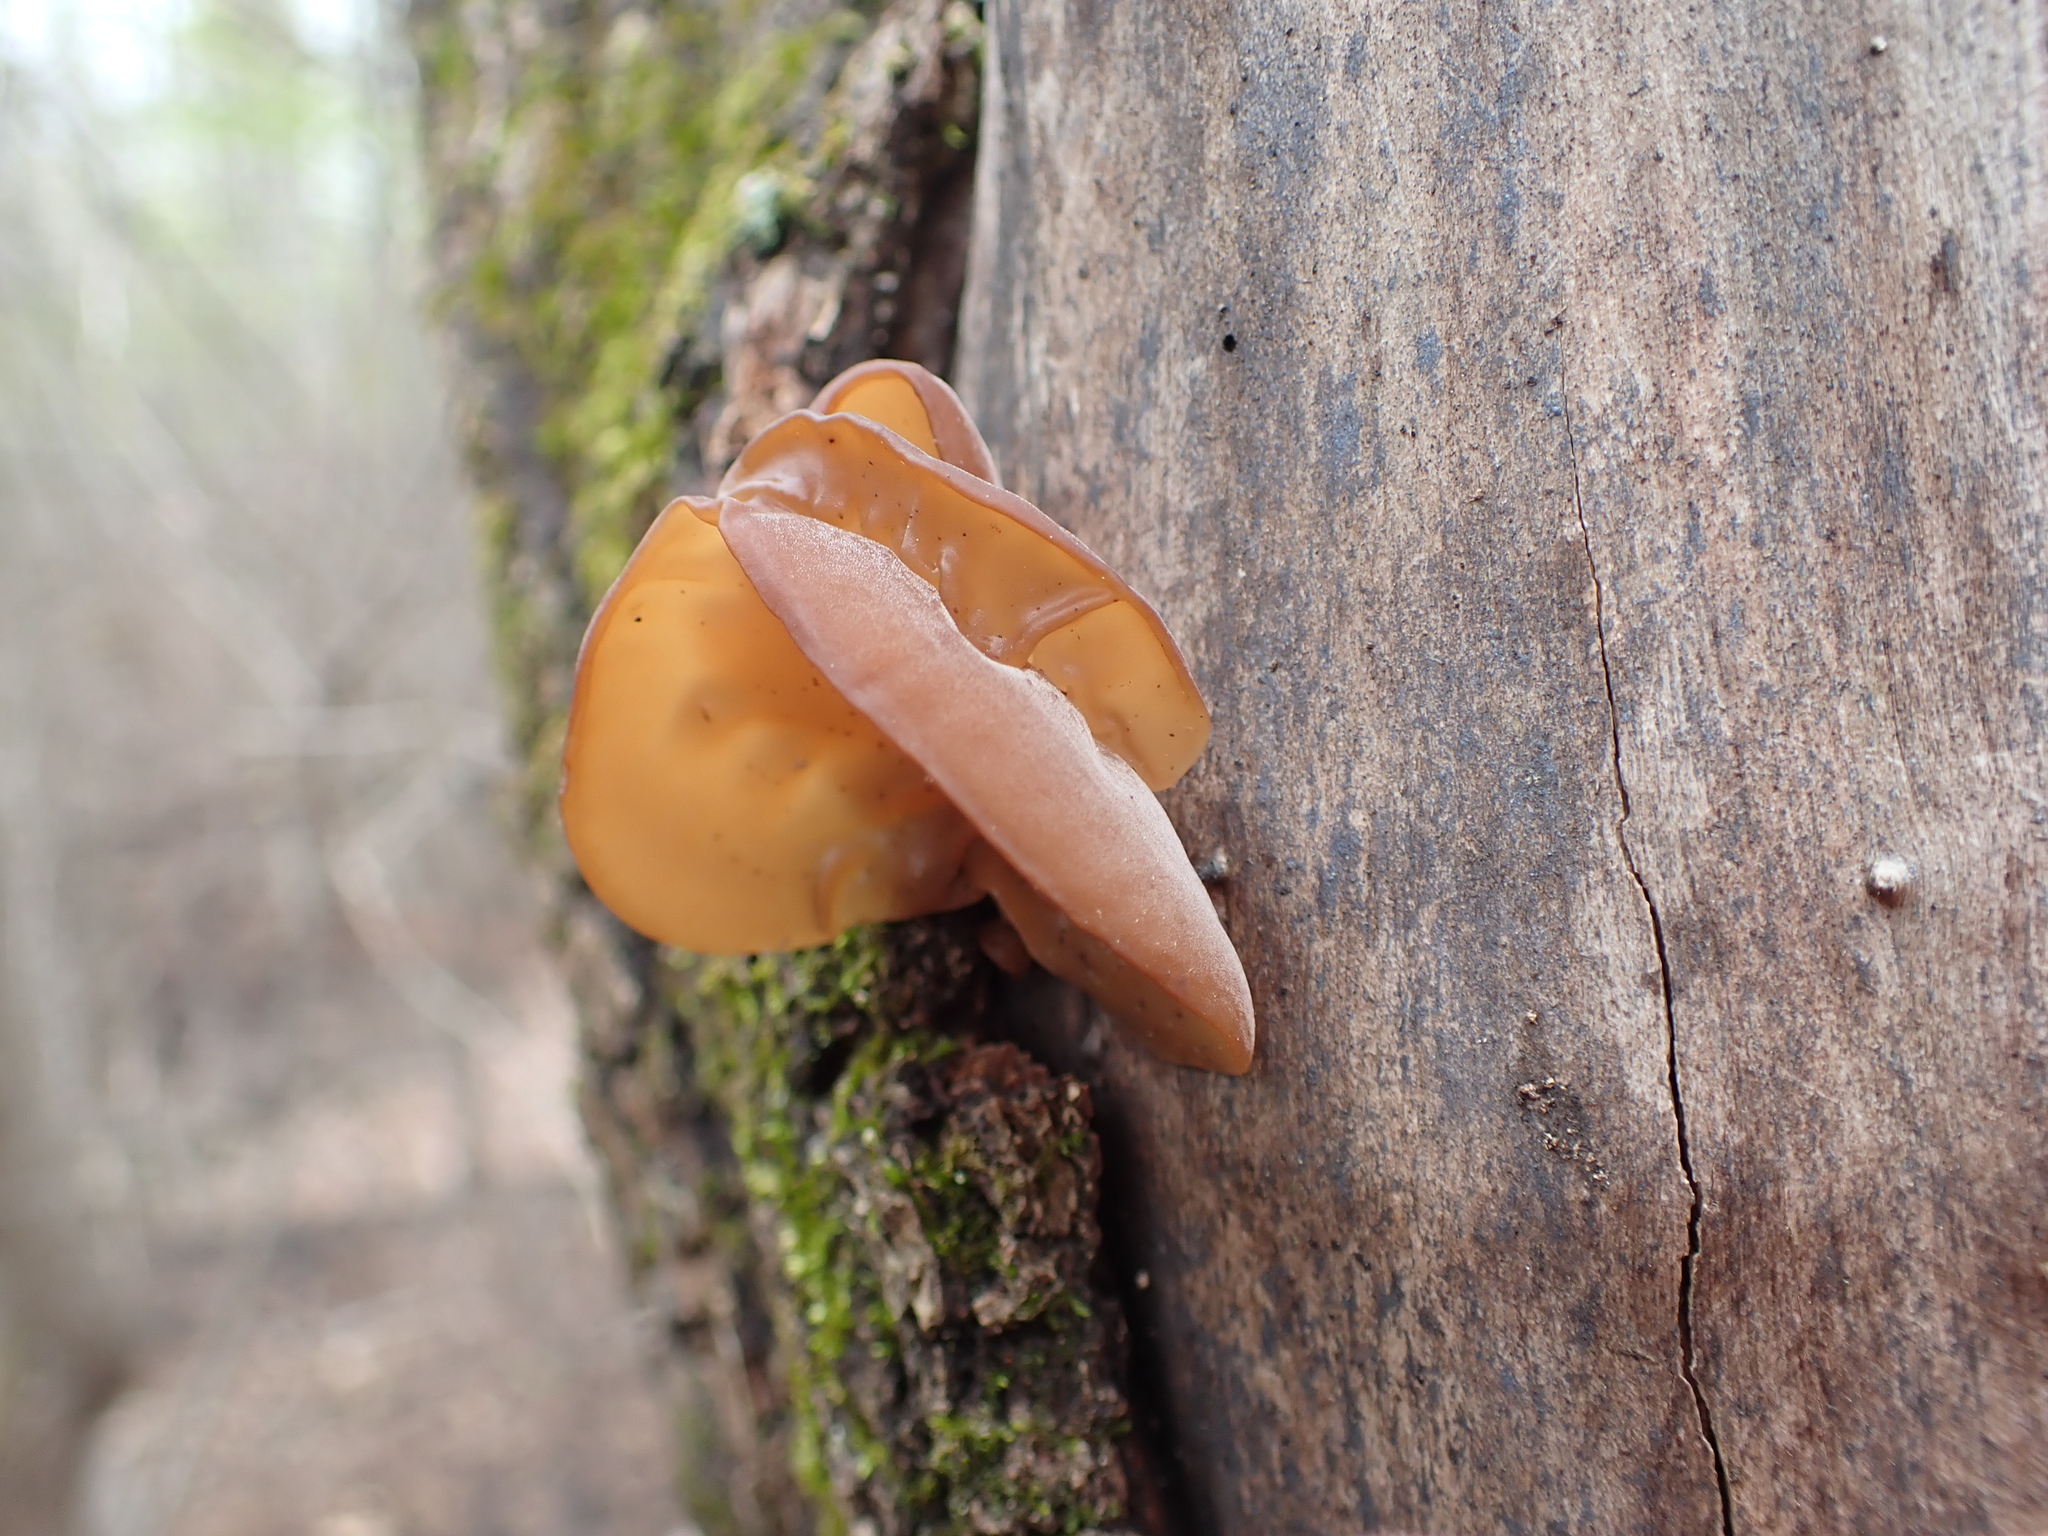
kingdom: Fungi
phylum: Basidiomycota
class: Agaricomycetes
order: Auriculariales
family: Auriculariaceae
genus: Auricularia
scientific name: Auricularia angiospermarum
